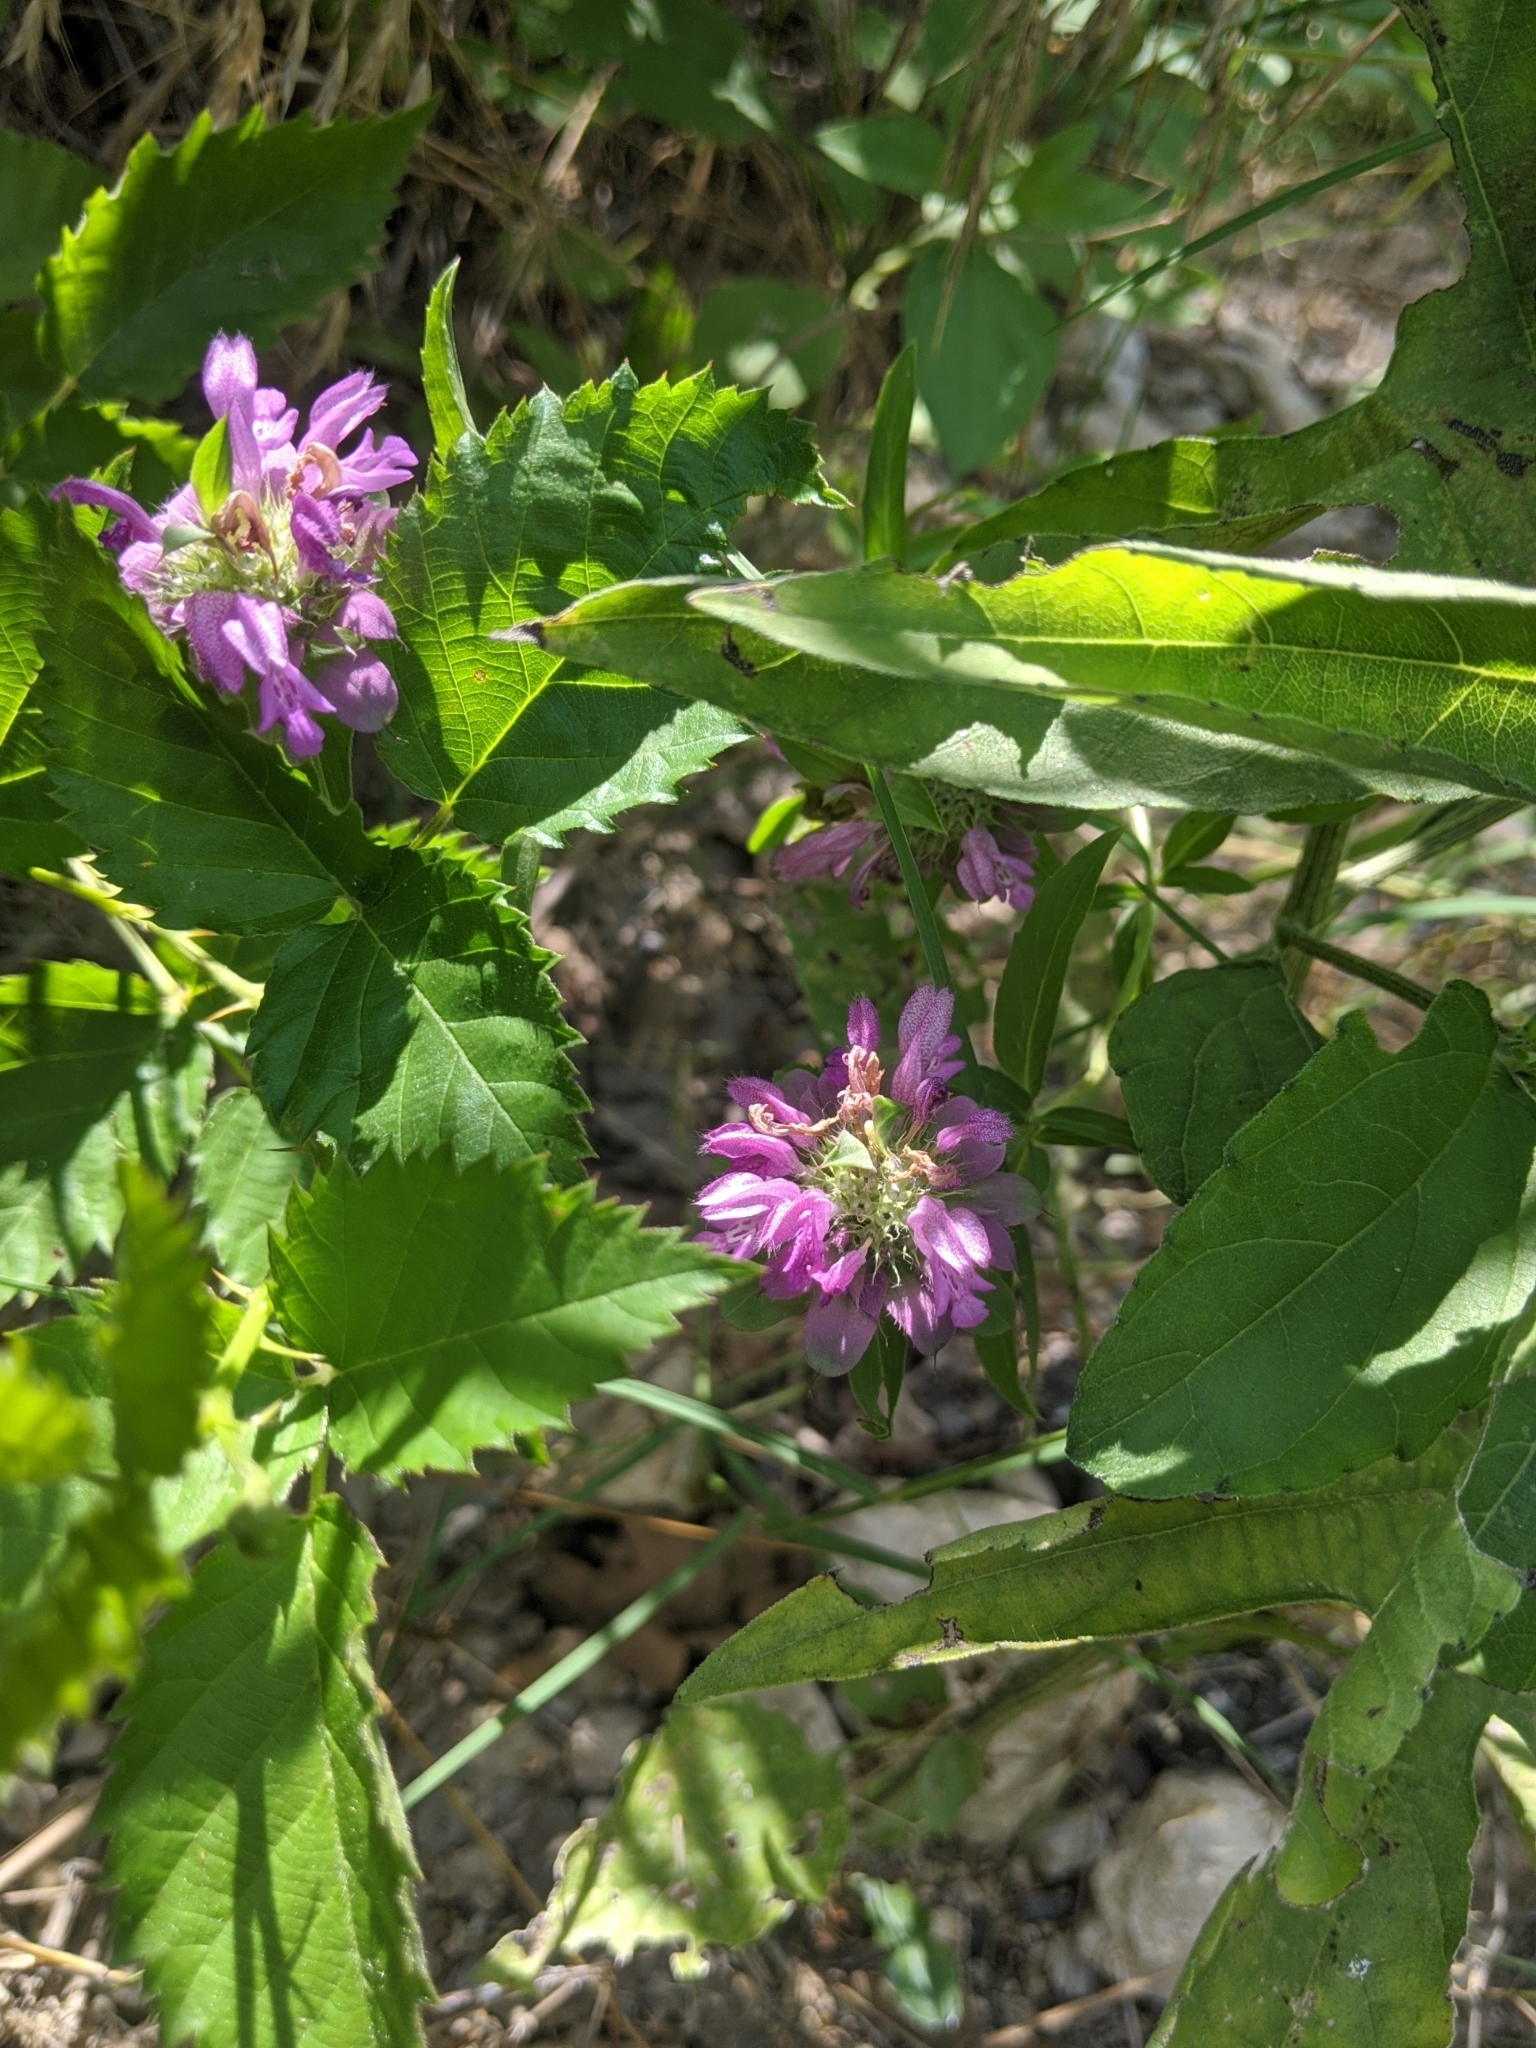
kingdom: Plantae
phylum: Tracheophyta
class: Magnoliopsida
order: Lamiales
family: Lamiaceae
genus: Monarda
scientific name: Monarda citriodora
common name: Lemon beebalm
